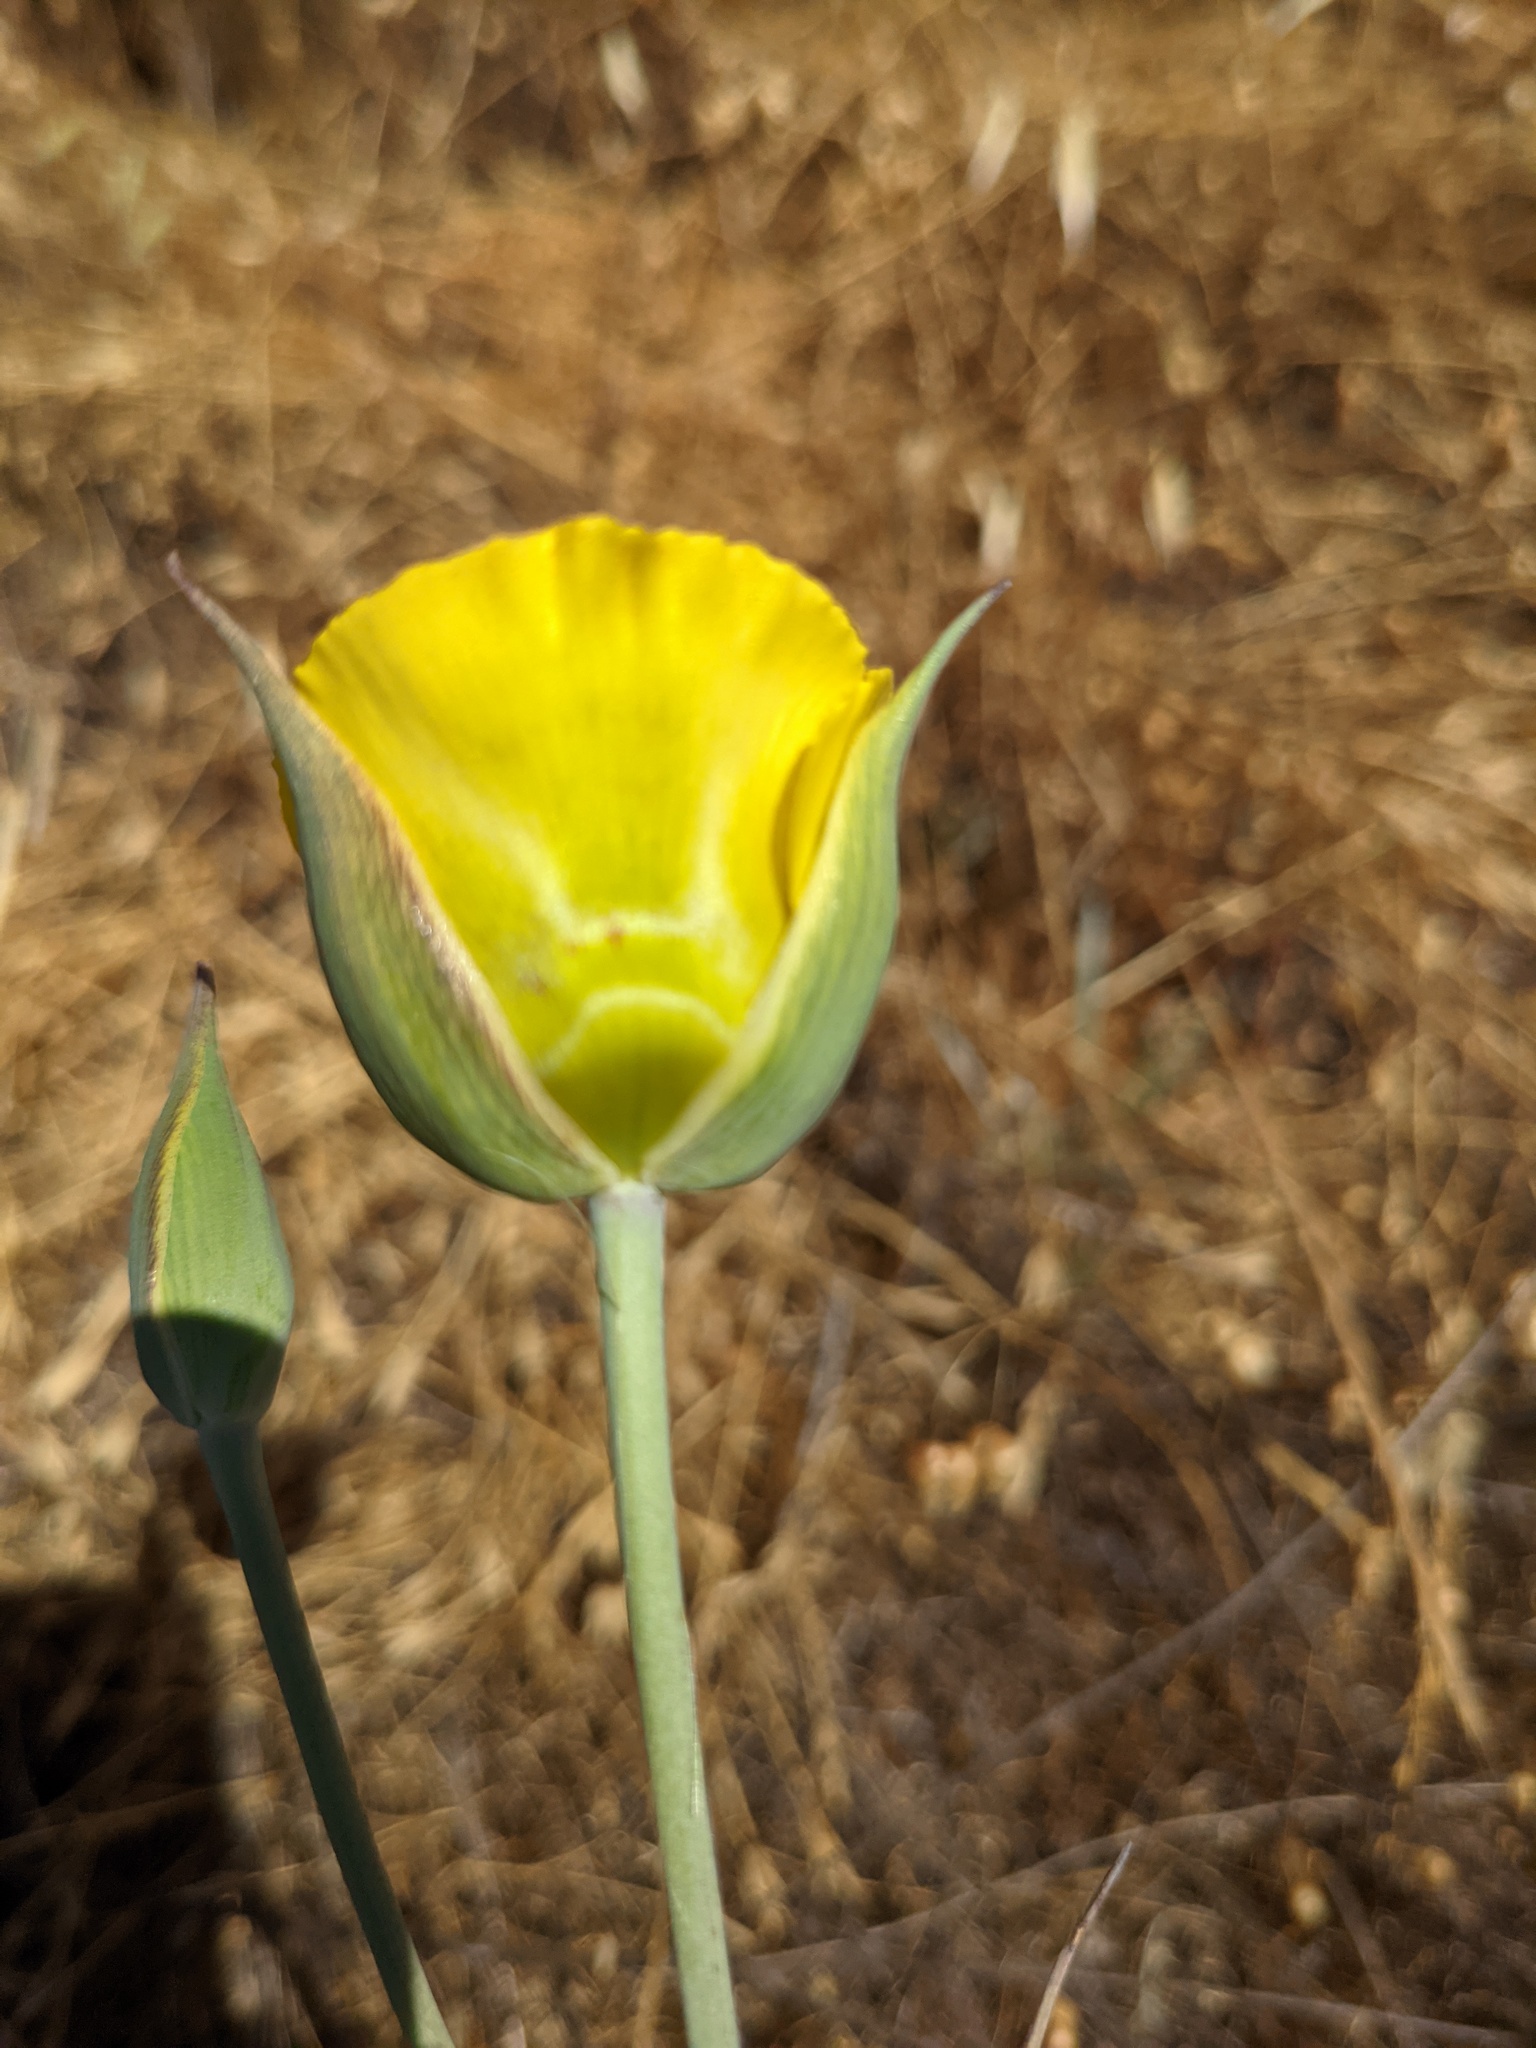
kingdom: Plantae
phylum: Tracheophyta
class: Liliopsida
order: Liliales
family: Liliaceae
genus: Calochortus
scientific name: Calochortus luteus
